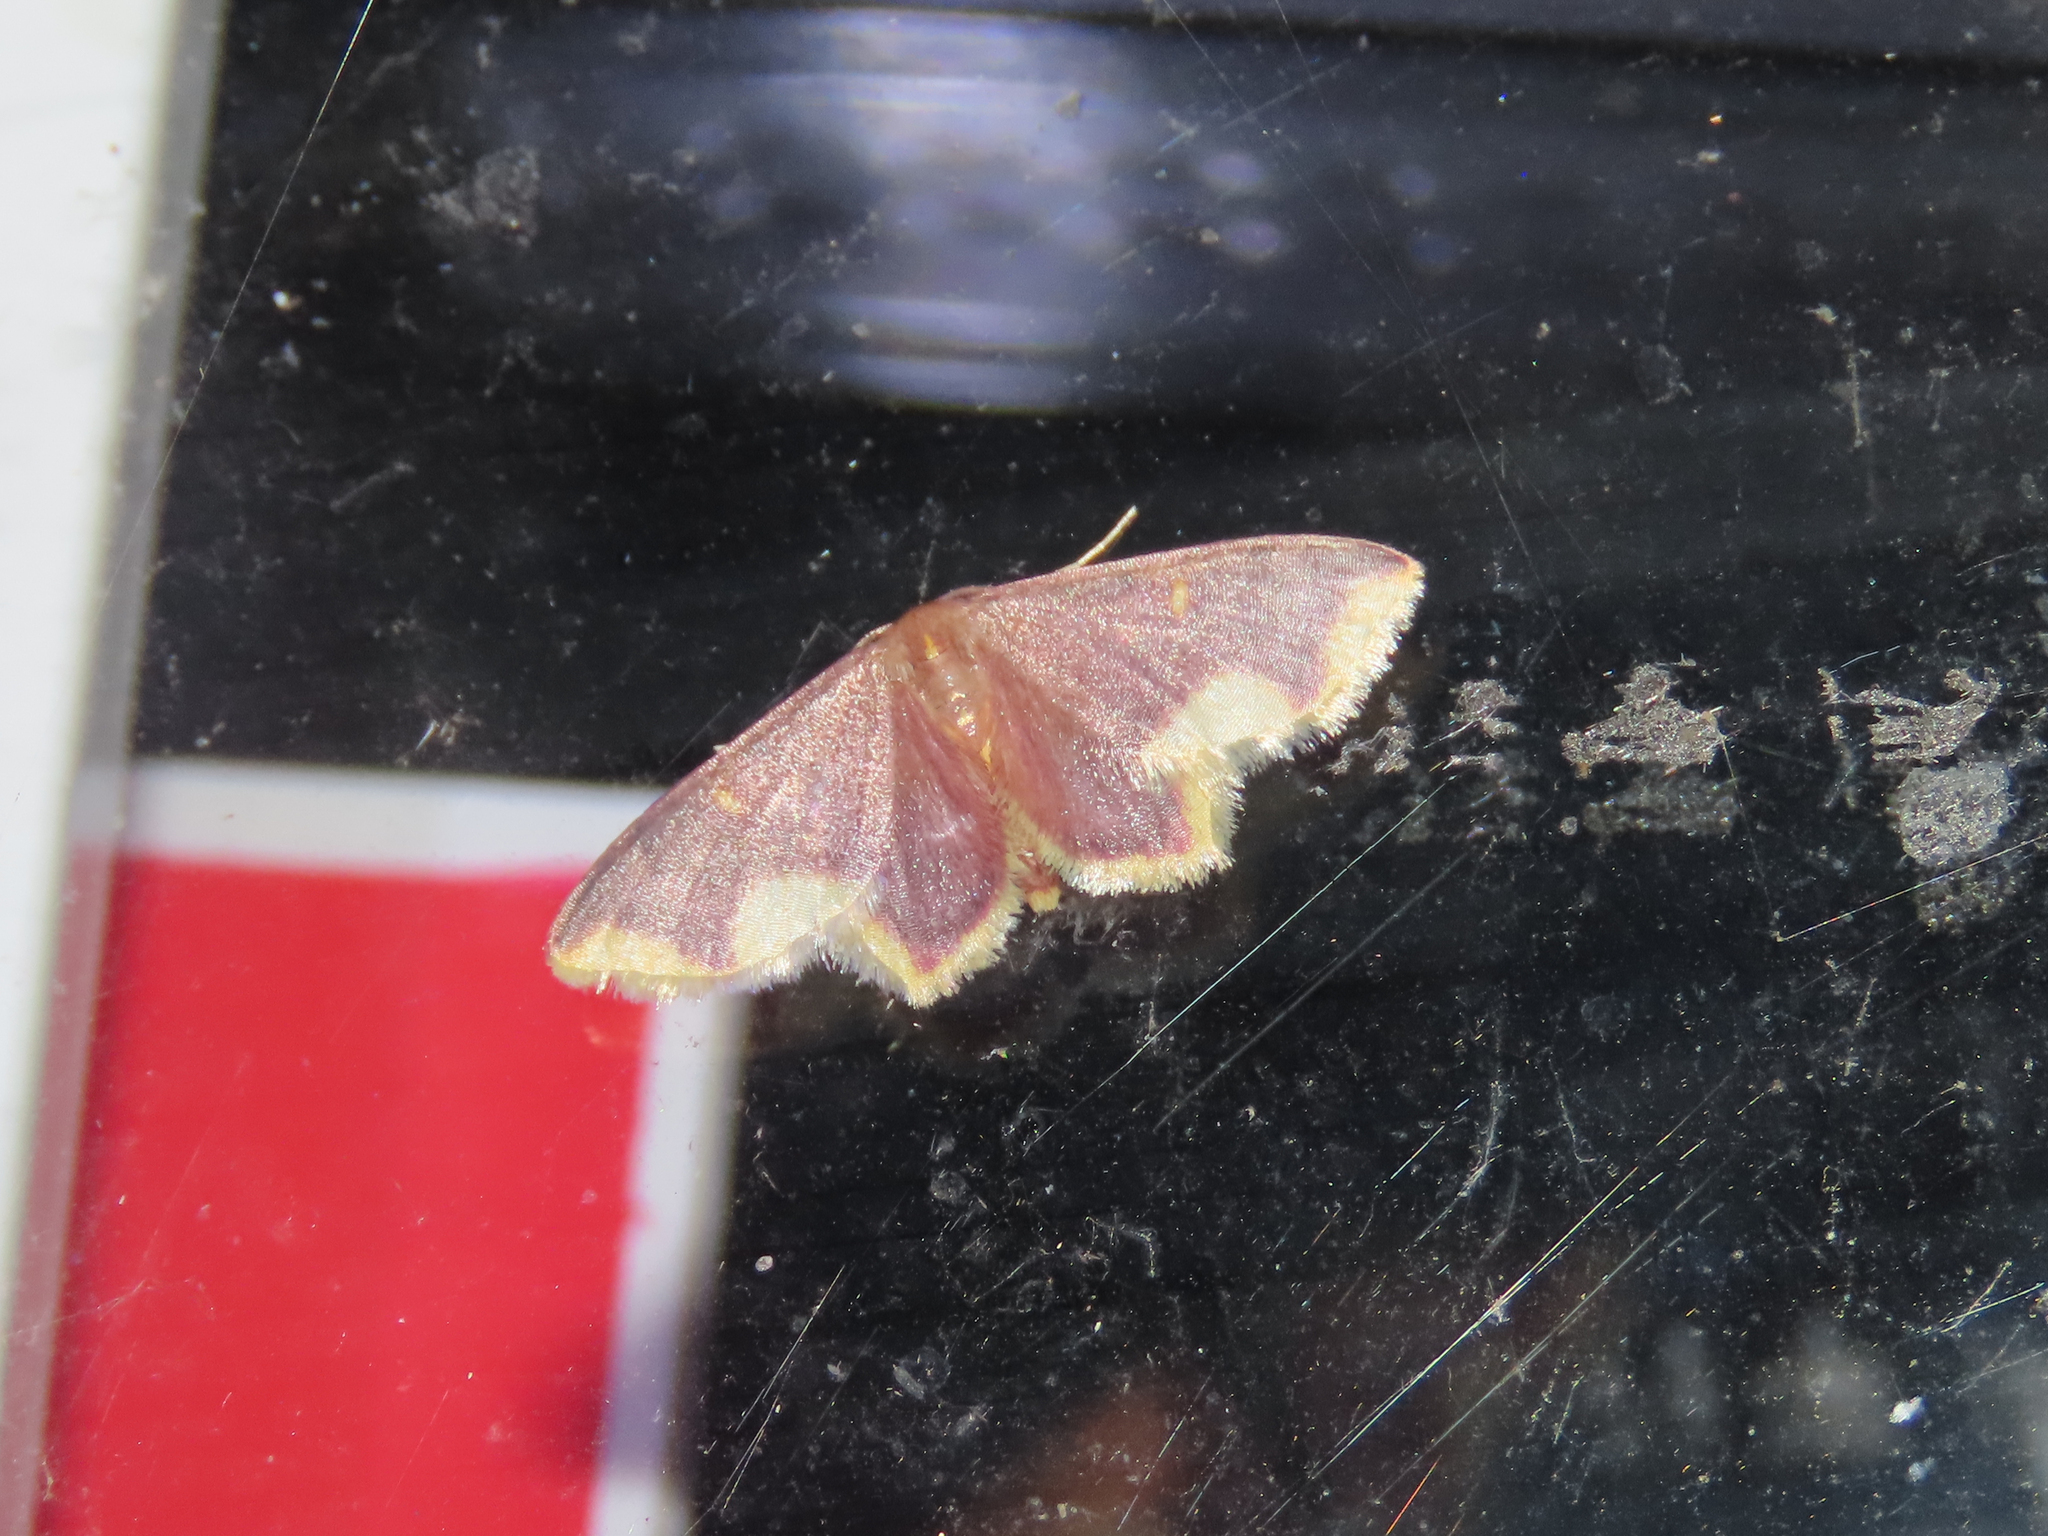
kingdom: Animalia
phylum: Arthropoda
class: Insecta
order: Lepidoptera
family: Geometridae
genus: Lophosis
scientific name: Lophosis labeculata
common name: Stained lophosis moth
